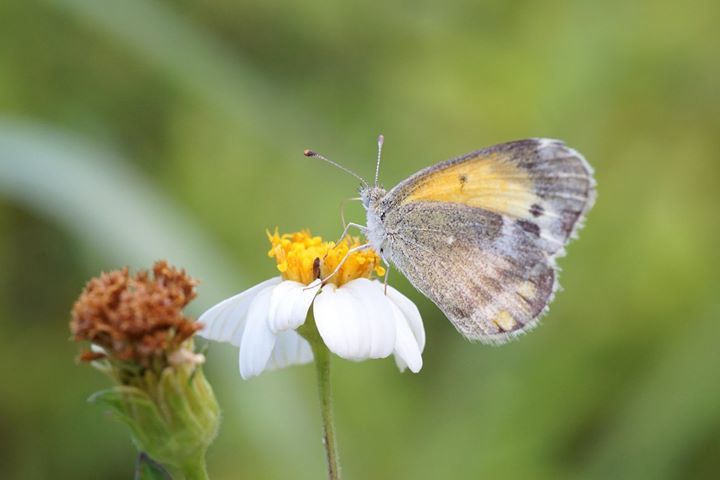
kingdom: Animalia
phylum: Arthropoda
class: Insecta
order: Lepidoptera
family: Pieridae
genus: Nathalis
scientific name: Nathalis iole
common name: Dainty sulphur
